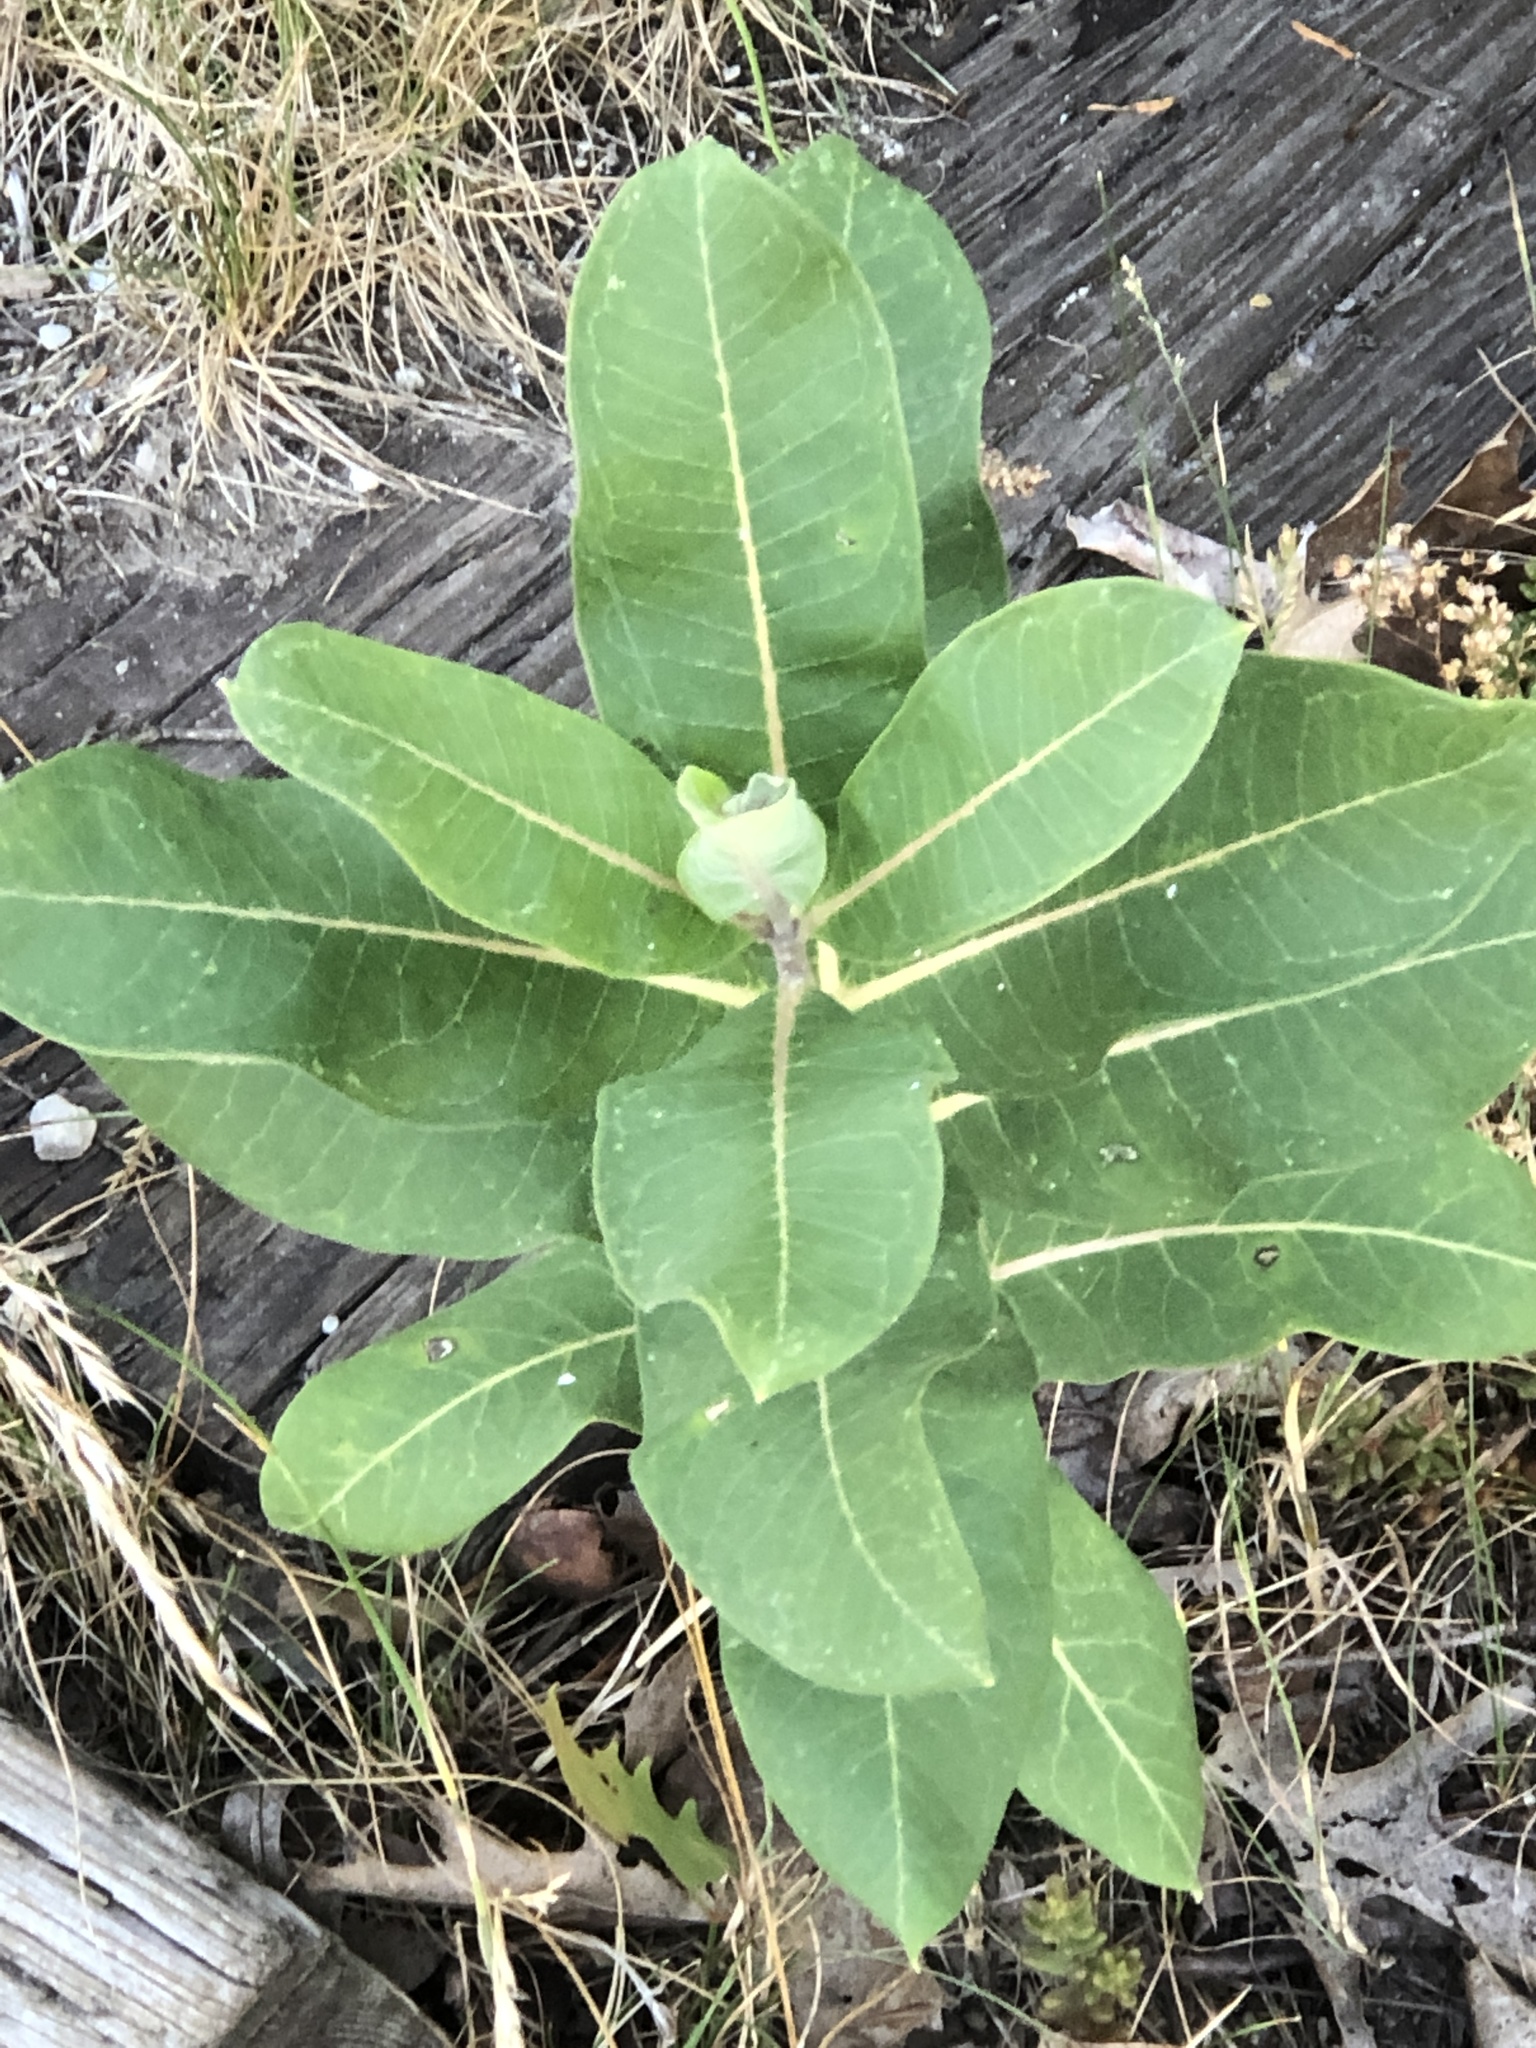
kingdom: Plantae
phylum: Tracheophyta
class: Magnoliopsida
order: Gentianales
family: Apocynaceae
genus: Asclepias
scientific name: Asclepias syriaca
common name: Common milkweed
